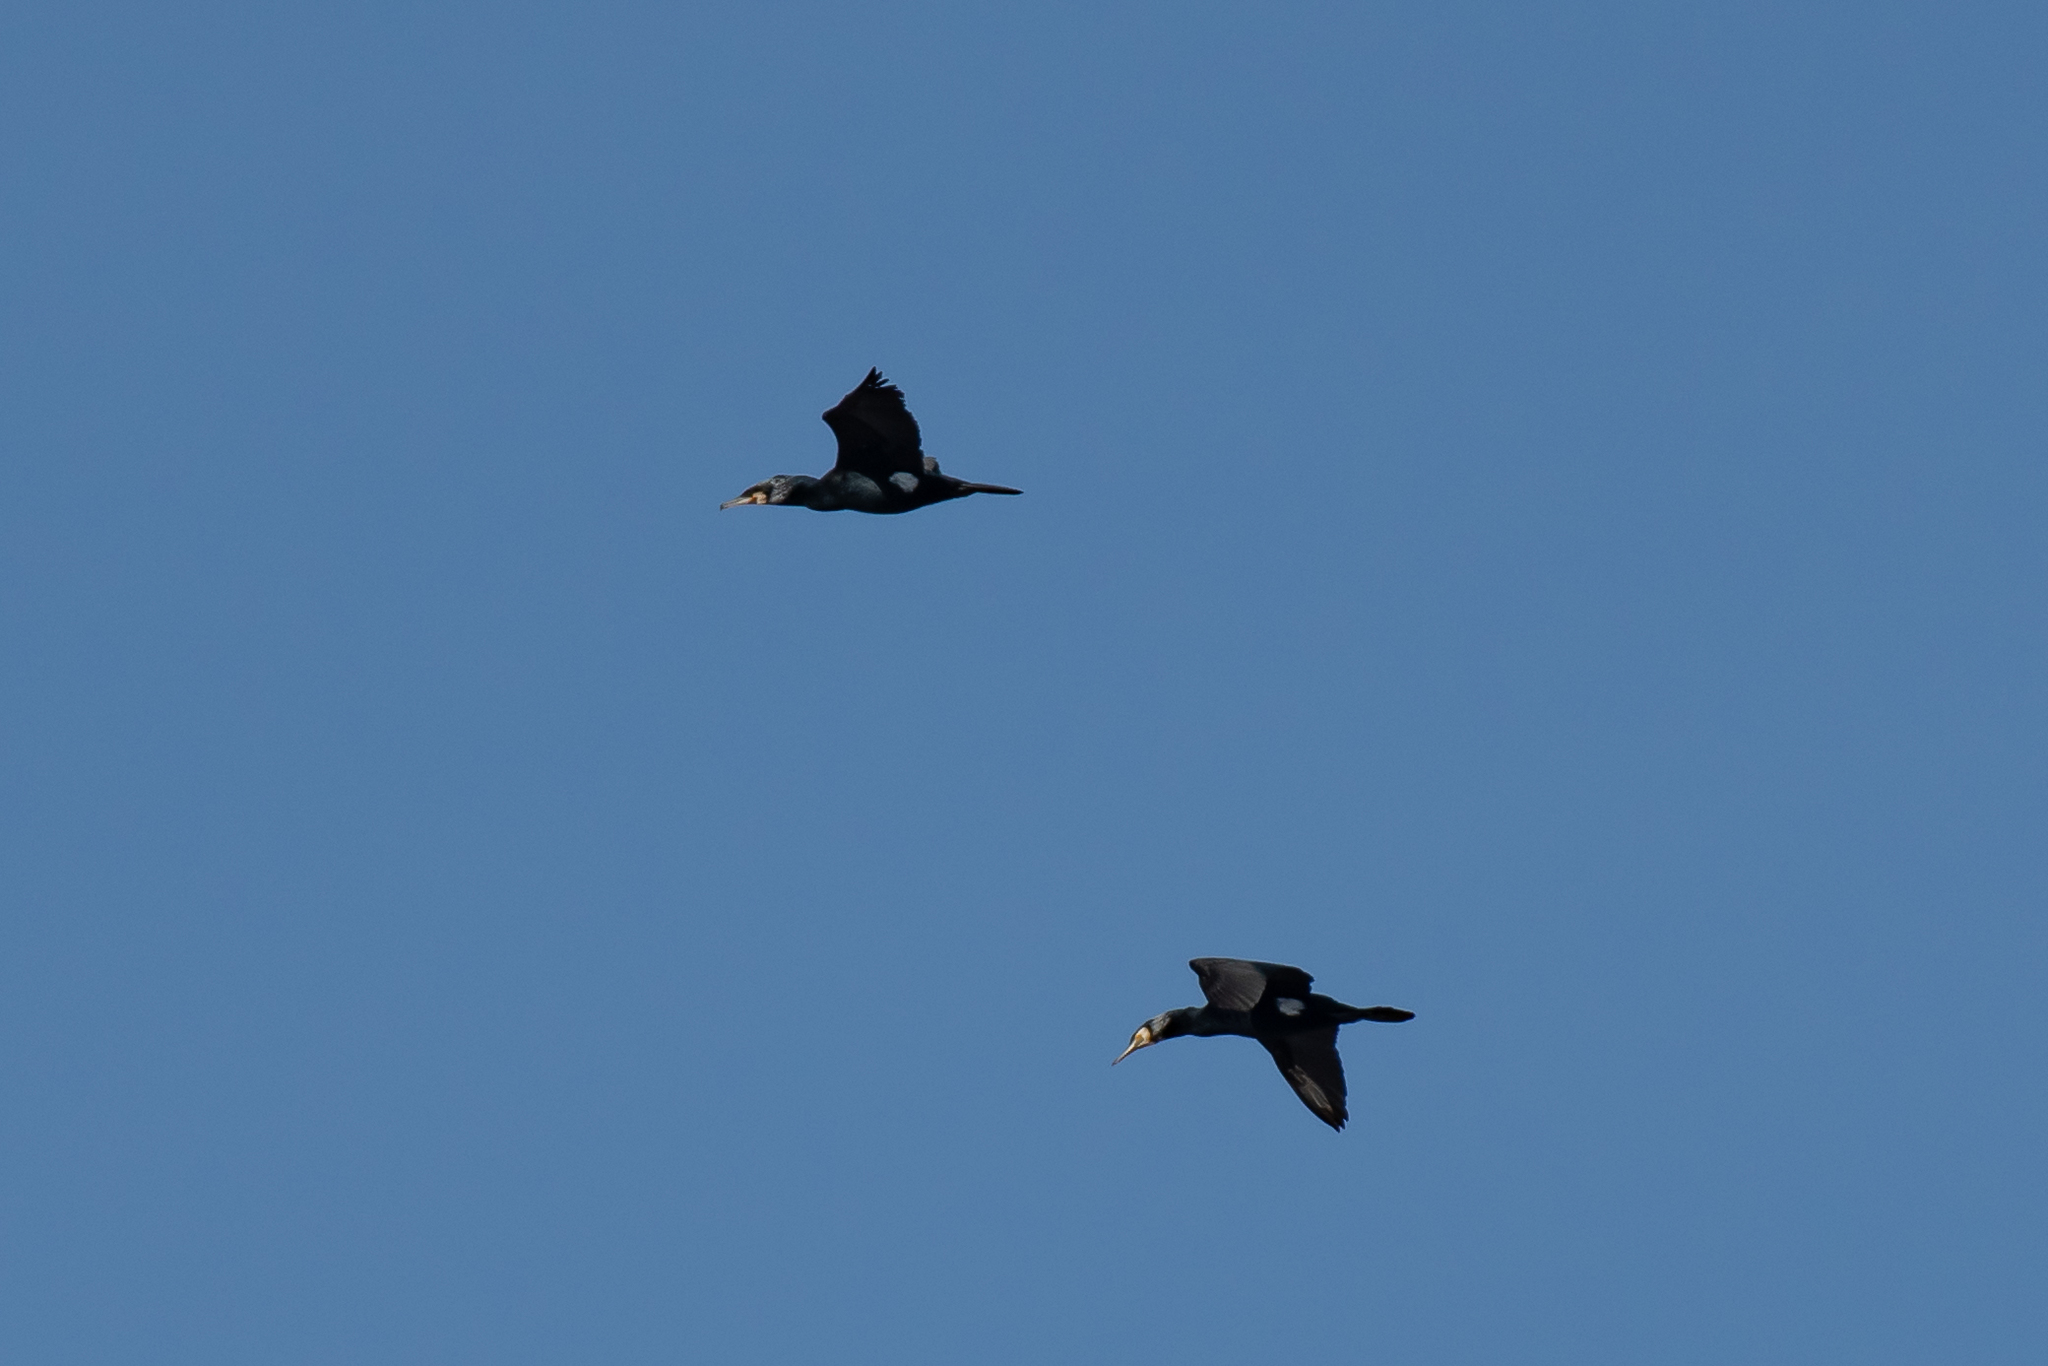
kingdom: Animalia
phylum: Chordata
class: Aves
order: Suliformes
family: Phalacrocoracidae
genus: Phalacrocorax
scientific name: Phalacrocorax carbo
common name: Great cormorant
